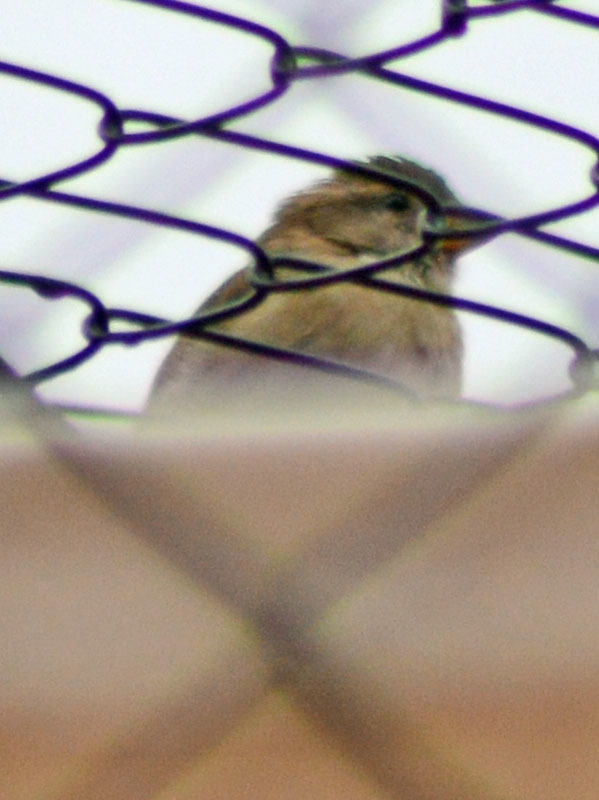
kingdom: Animalia
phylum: Chordata
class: Aves
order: Passeriformes
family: Passeridae
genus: Passer
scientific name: Passer domesticus
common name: House sparrow
